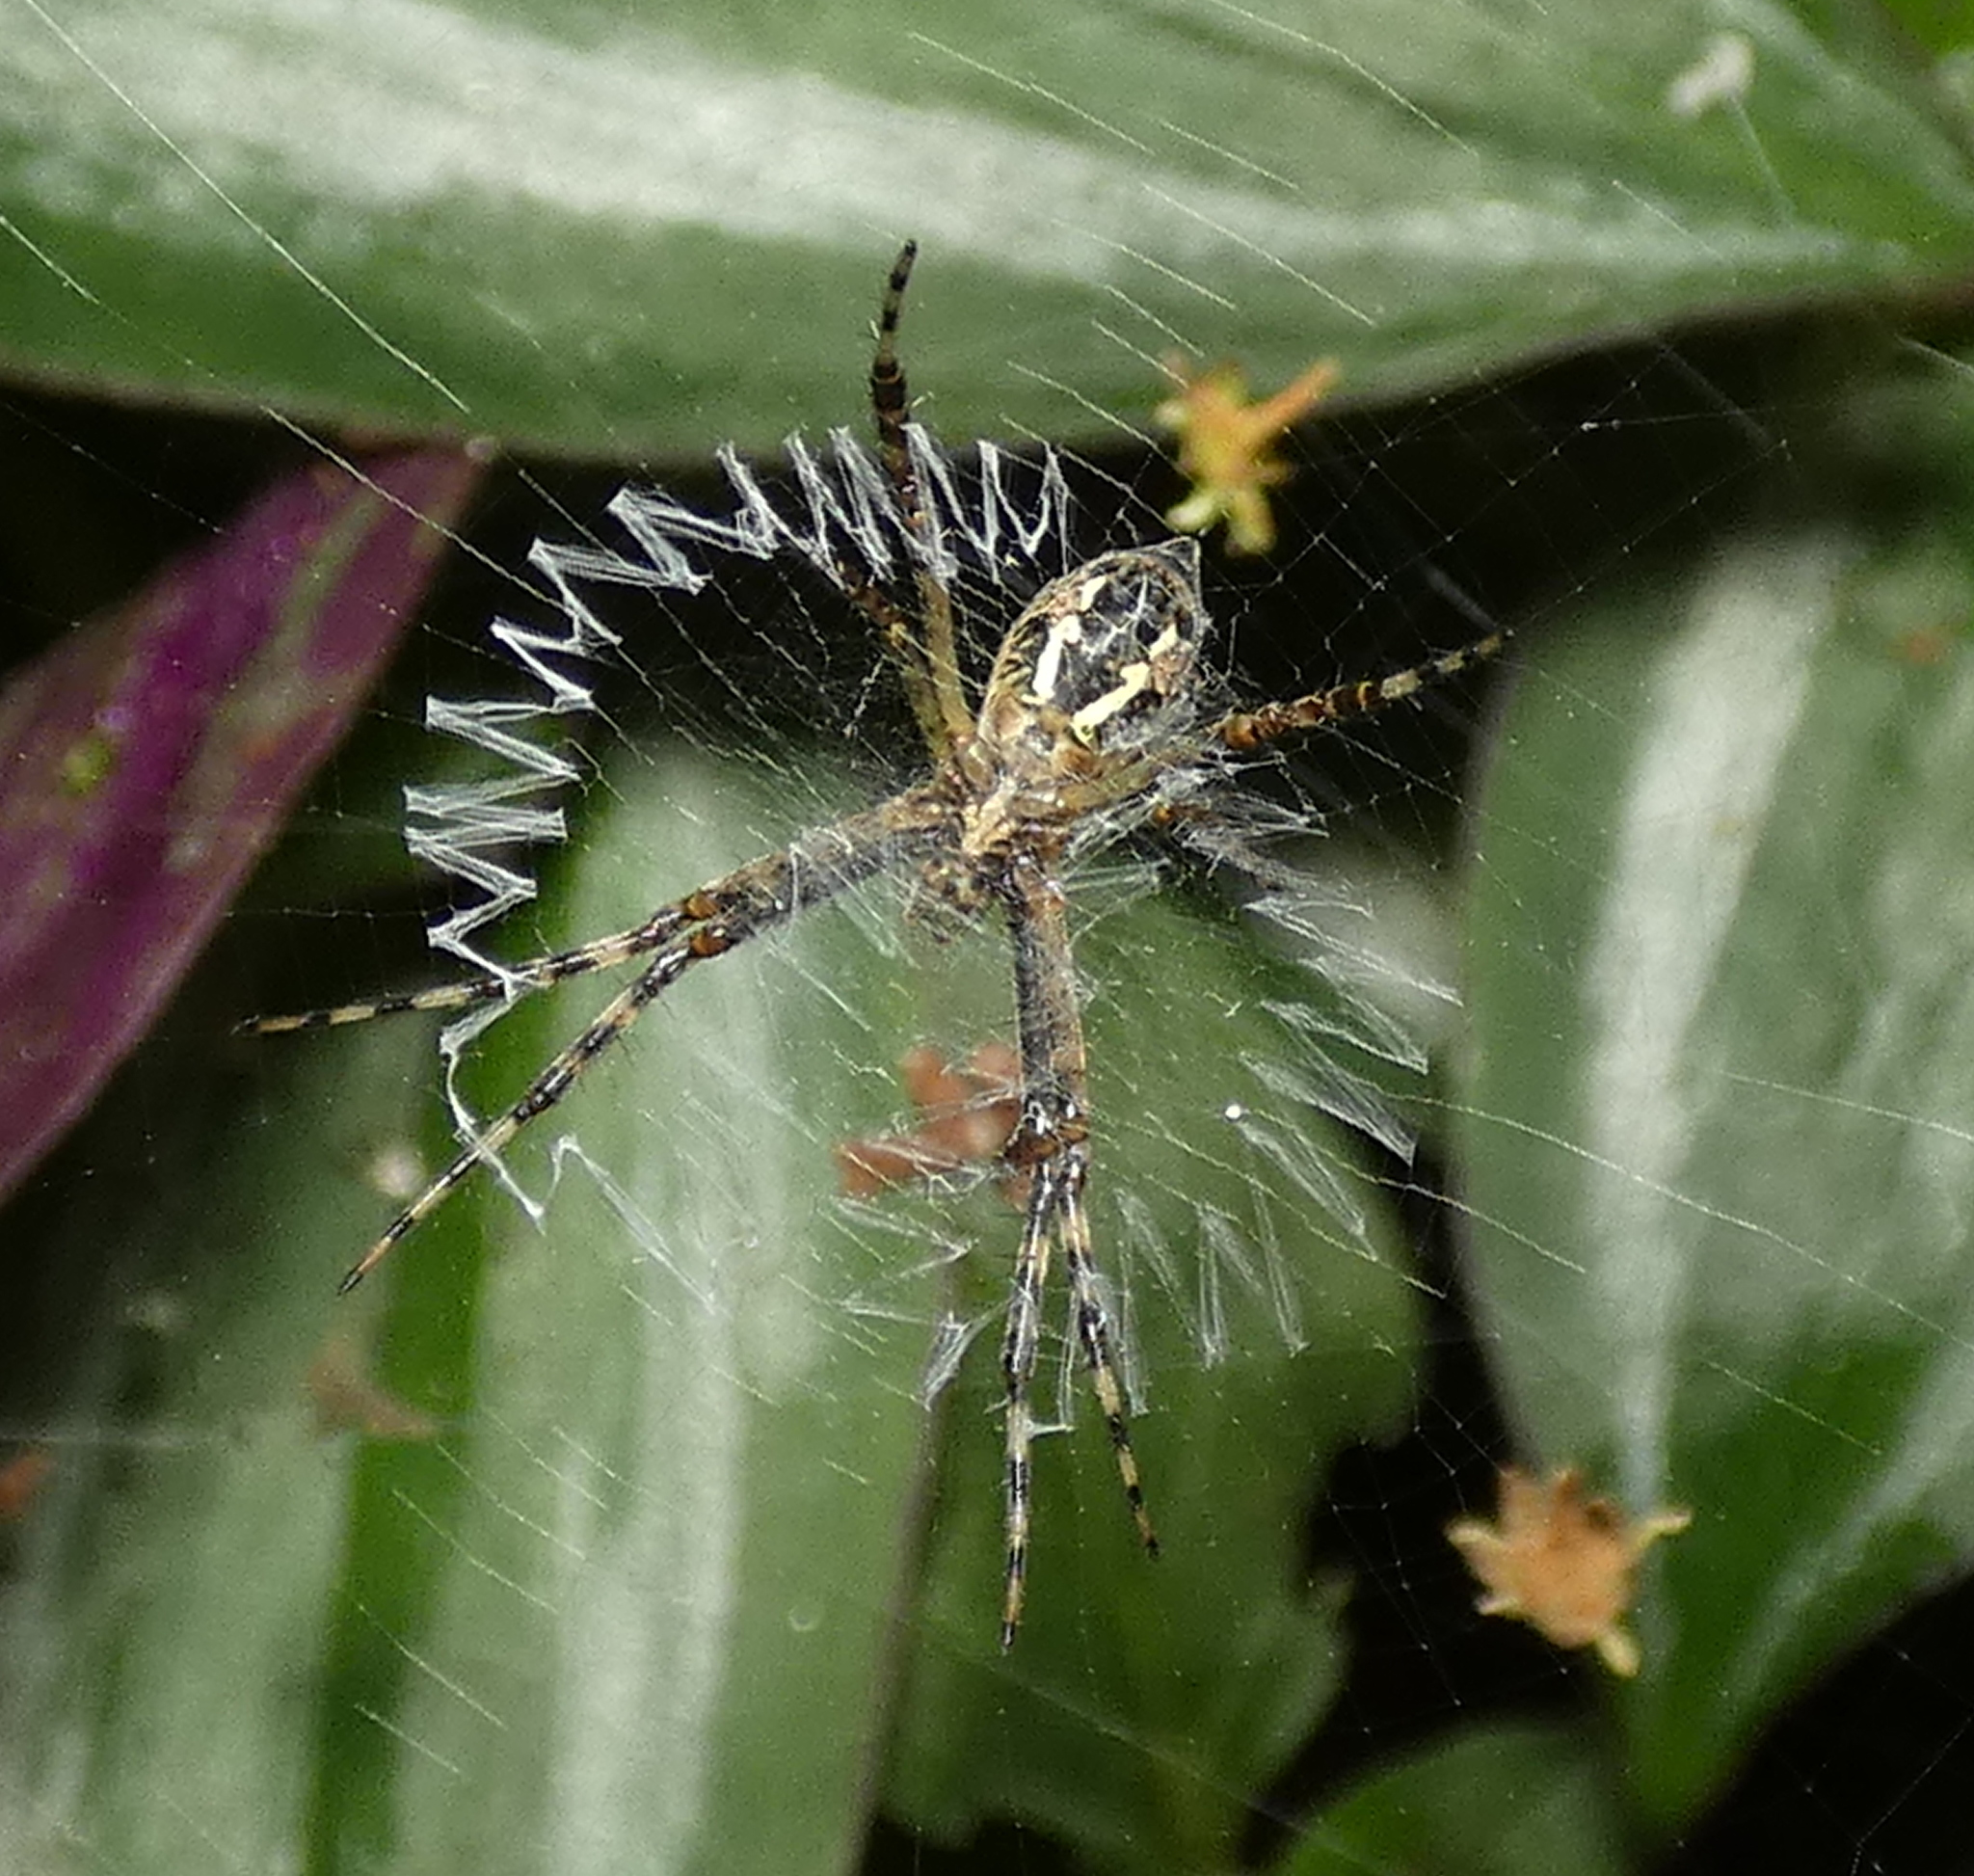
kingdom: Animalia
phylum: Arthropoda
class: Arachnida
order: Araneae
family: Araneidae
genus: Argiope
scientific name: Argiope argentata
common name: Orb weavers
